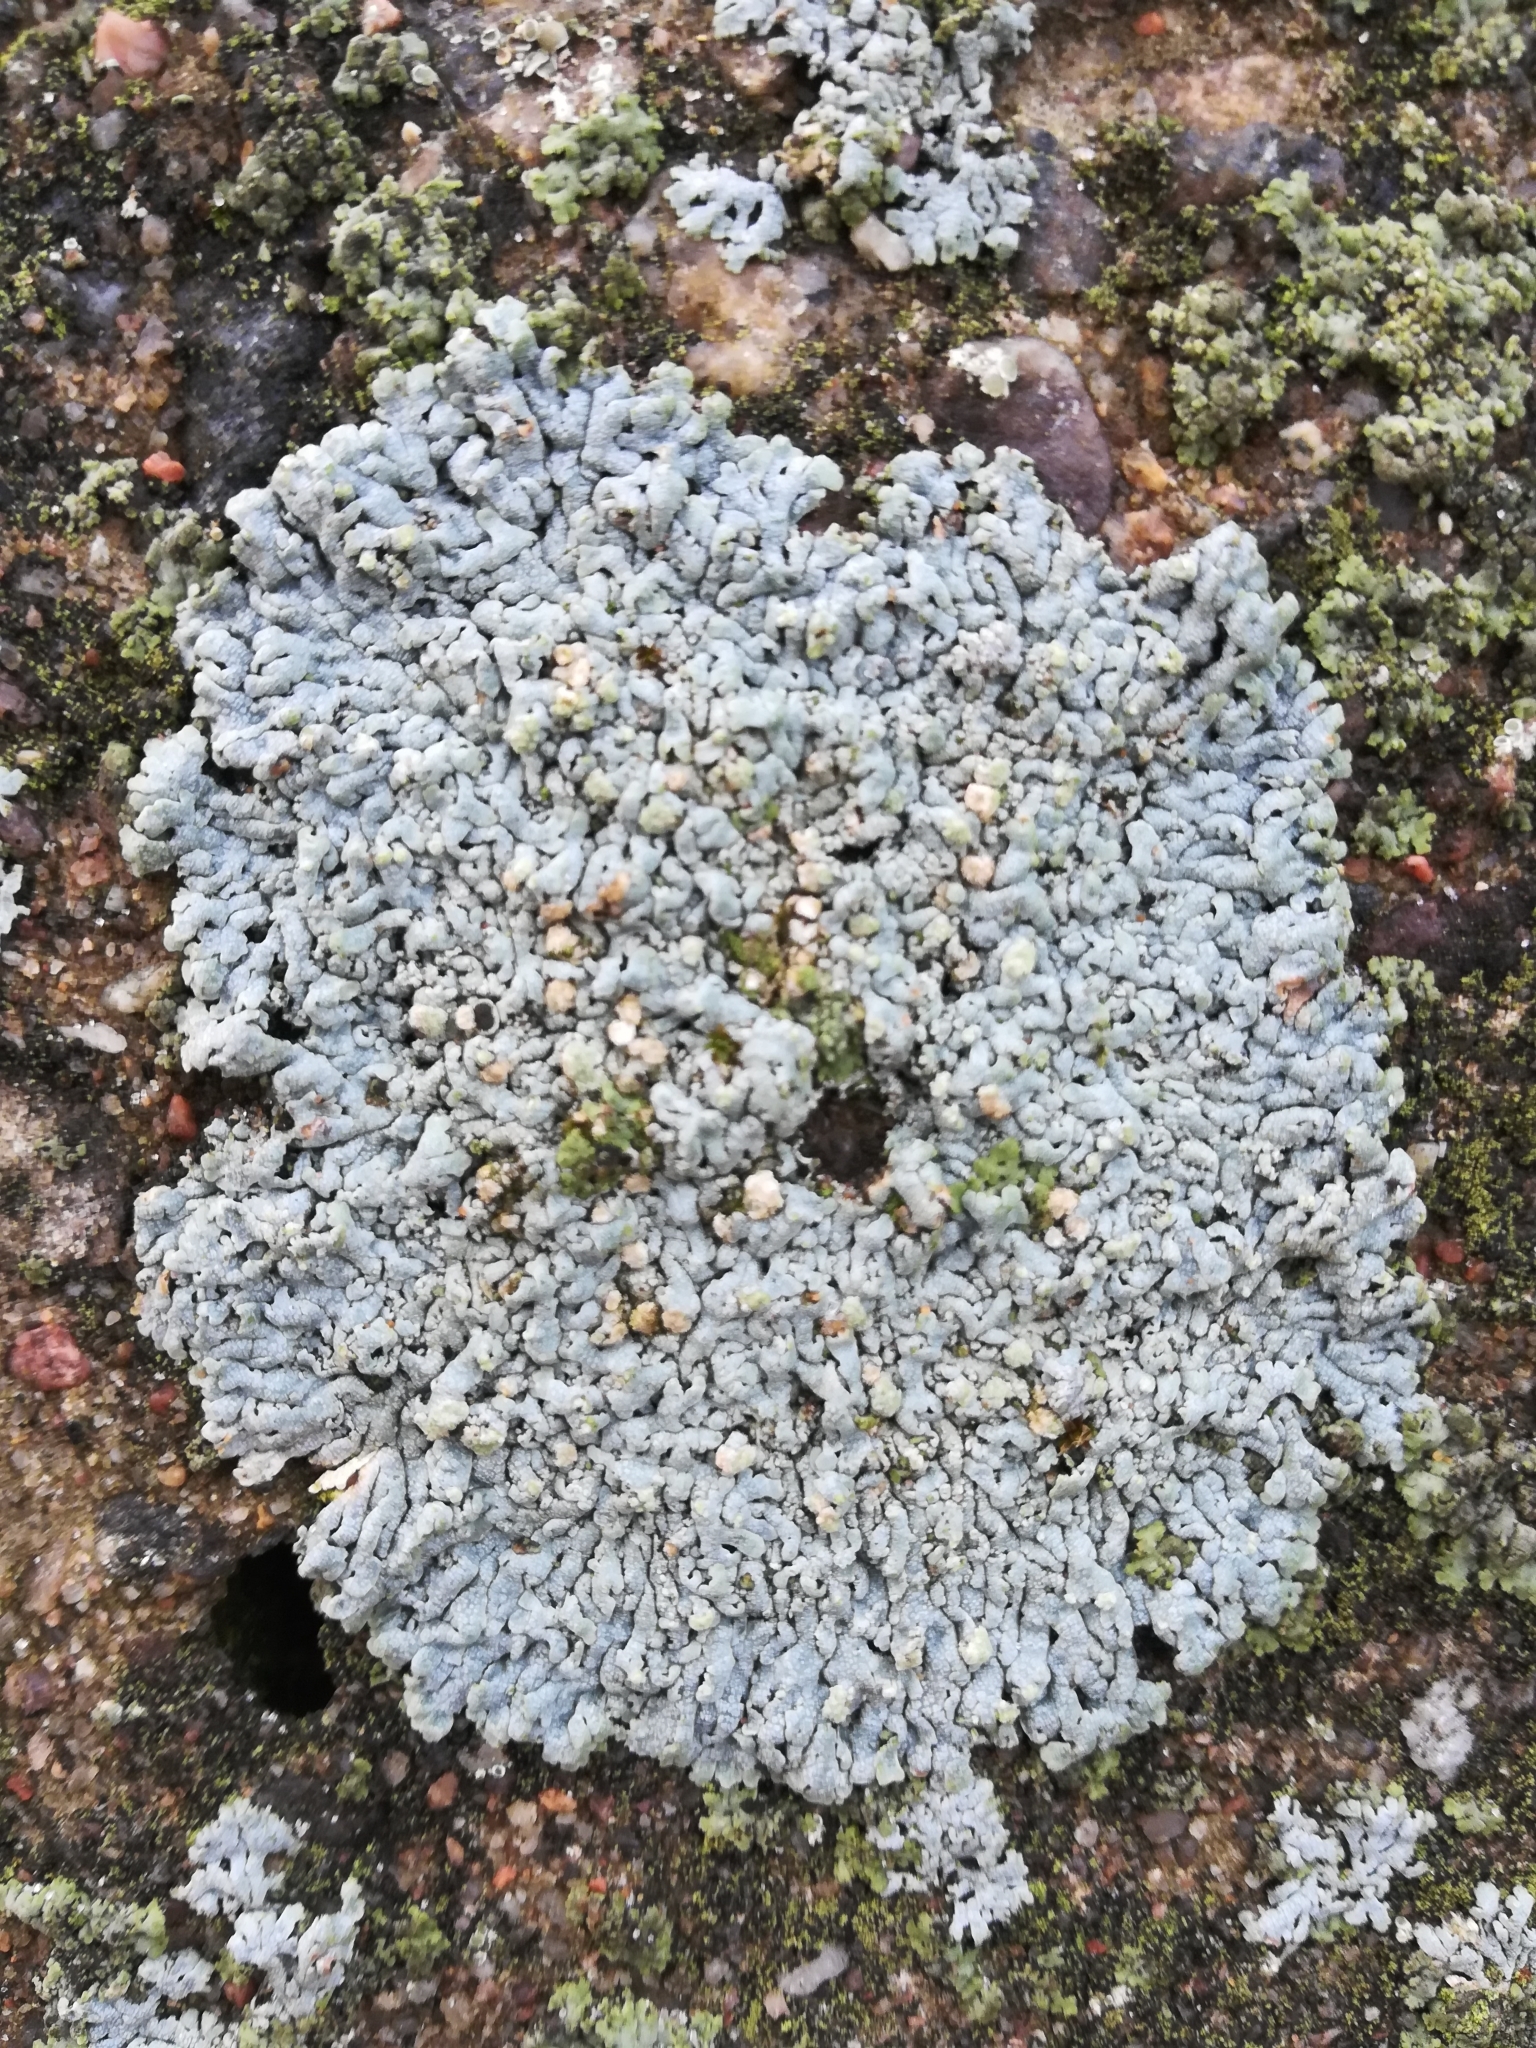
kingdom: Fungi
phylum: Ascomycota
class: Lecanoromycetes
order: Caliciales
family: Physciaceae
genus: Physcia
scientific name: Physcia caesia
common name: Blue-gray rosette lichen
